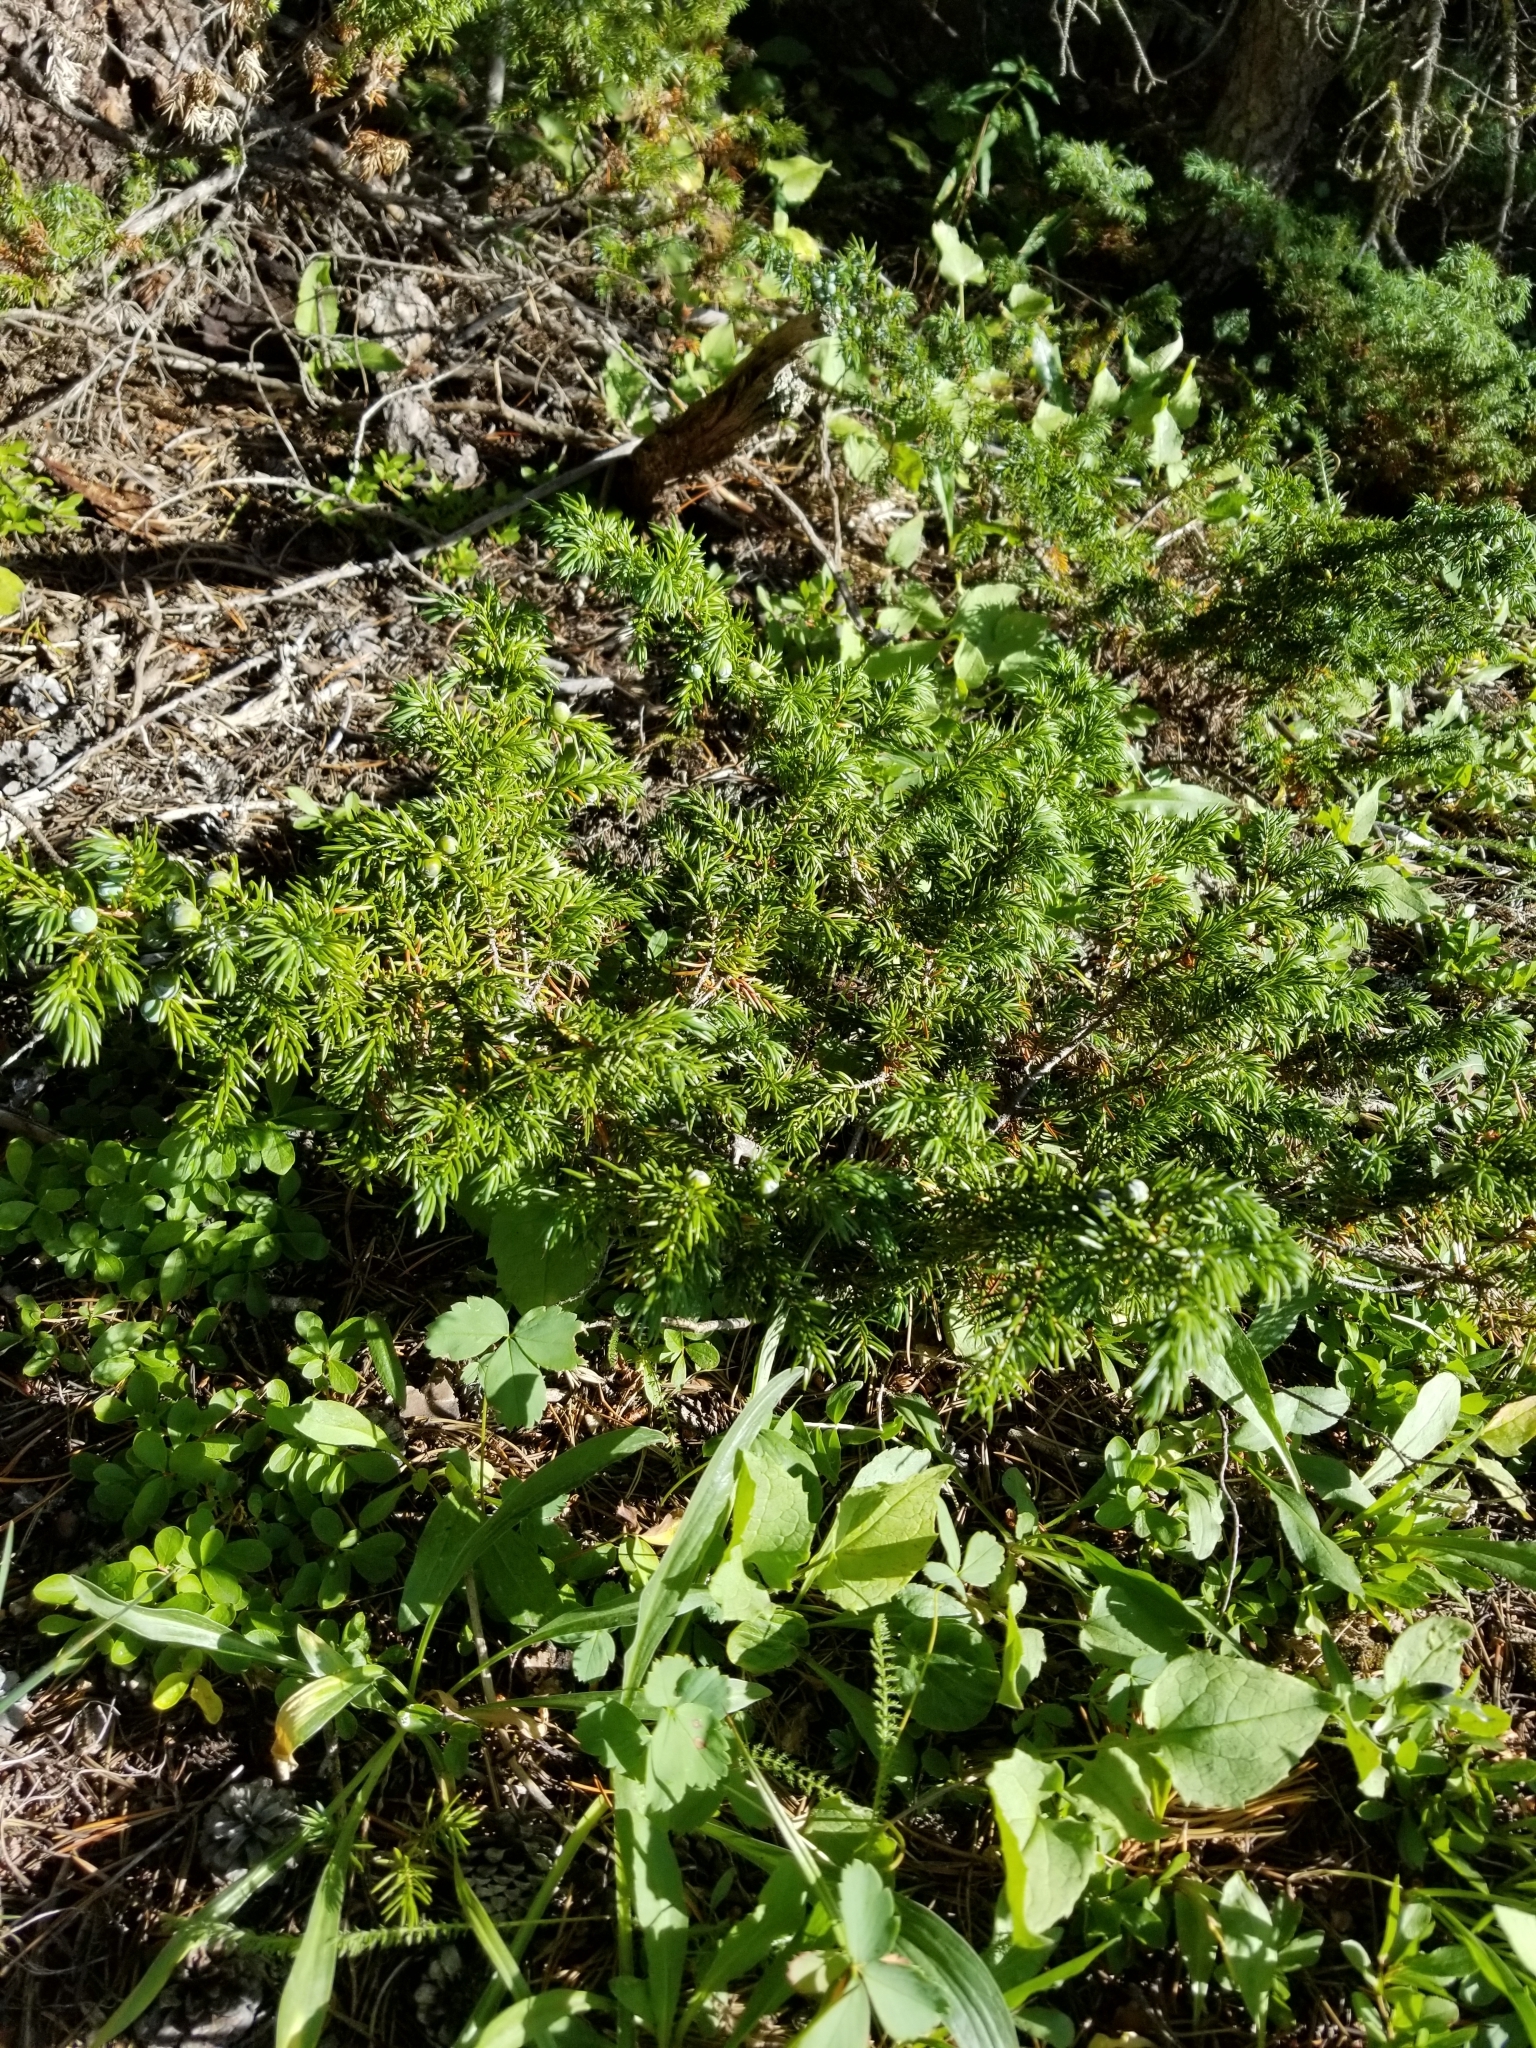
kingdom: Plantae
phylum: Tracheophyta
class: Pinopsida
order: Pinales
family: Cupressaceae
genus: Juniperus
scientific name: Juniperus communis
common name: Common juniper
